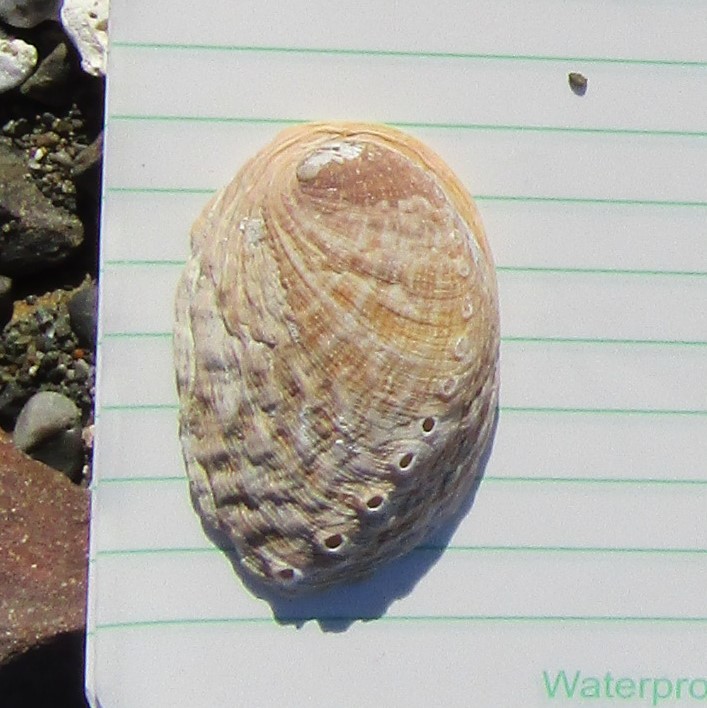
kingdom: Animalia
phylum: Mollusca
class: Gastropoda
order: Lepetellida
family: Haliotidae
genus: Haliotis
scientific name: Haliotis iris
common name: Abalone
